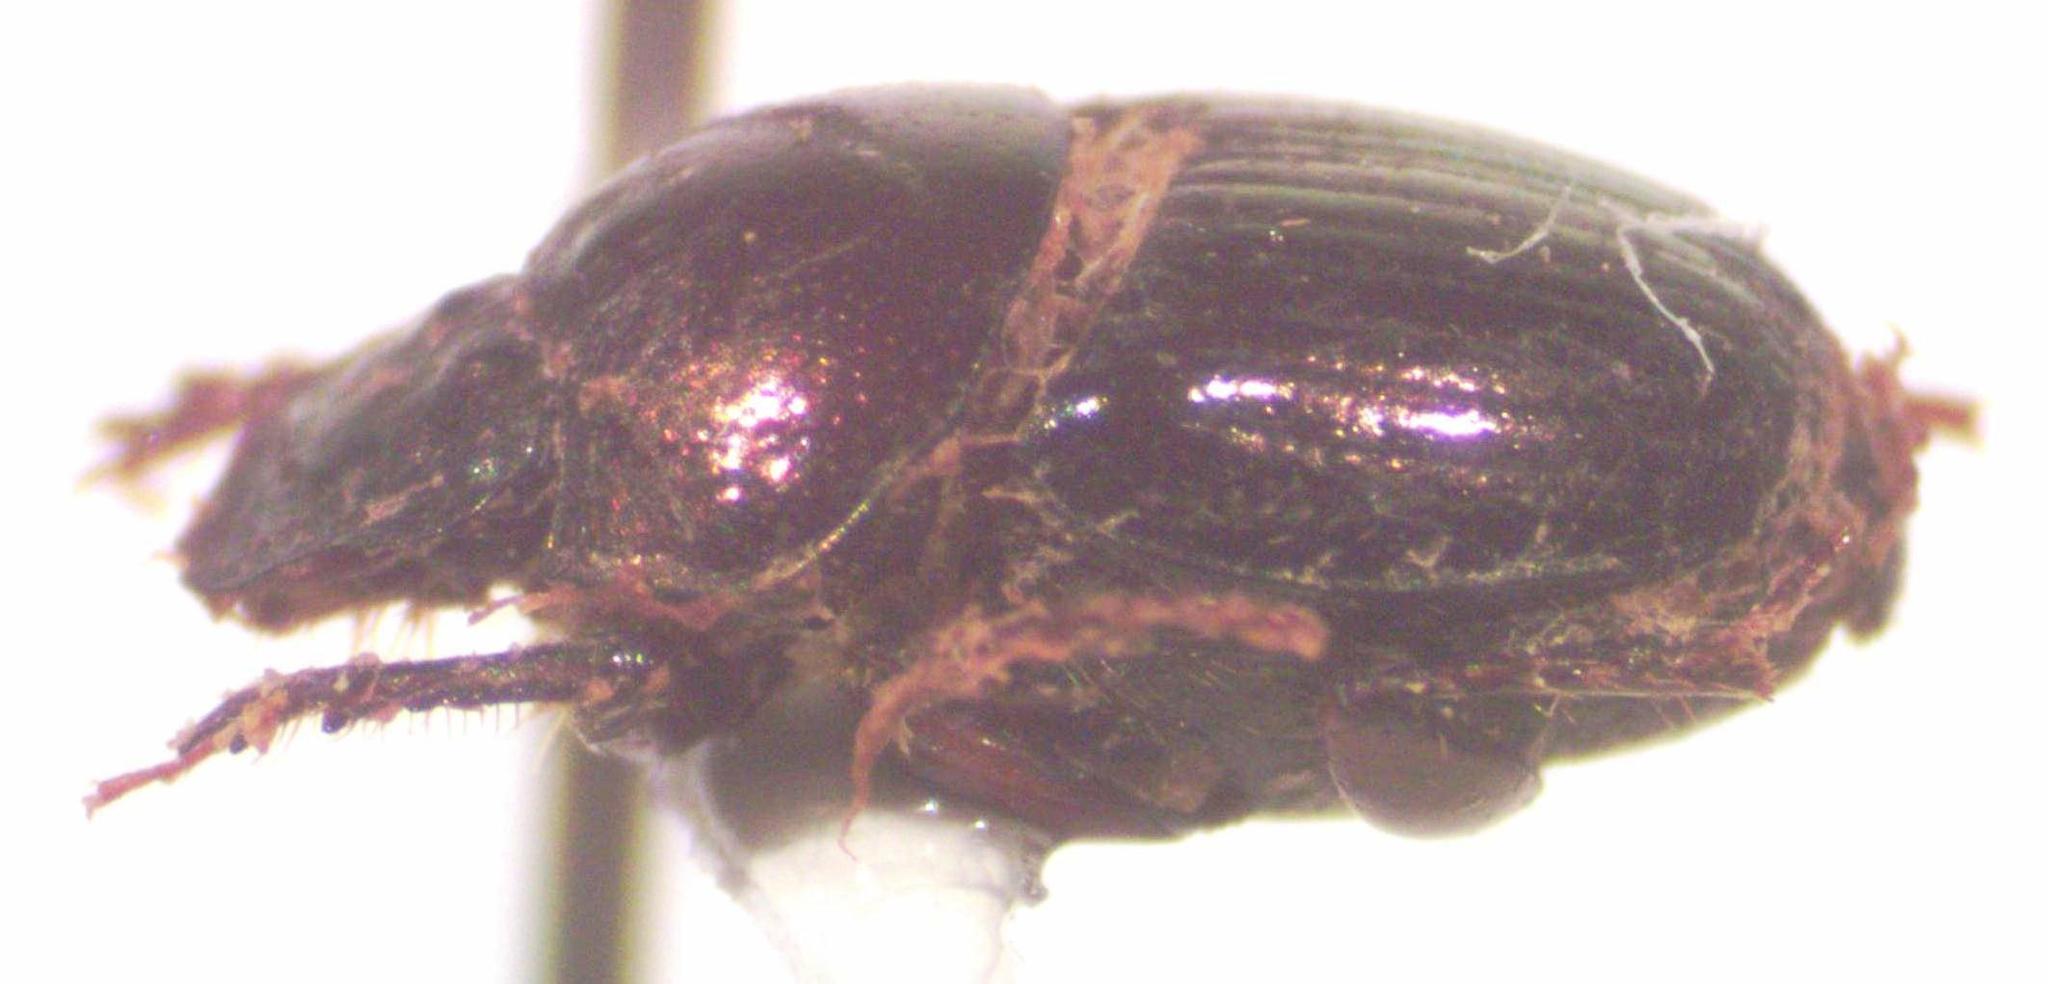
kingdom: Animalia
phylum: Arthropoda
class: Insecta
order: Coleoptera
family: Scarabaeidae
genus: Onthophagus
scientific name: Onthophagus limonensis
